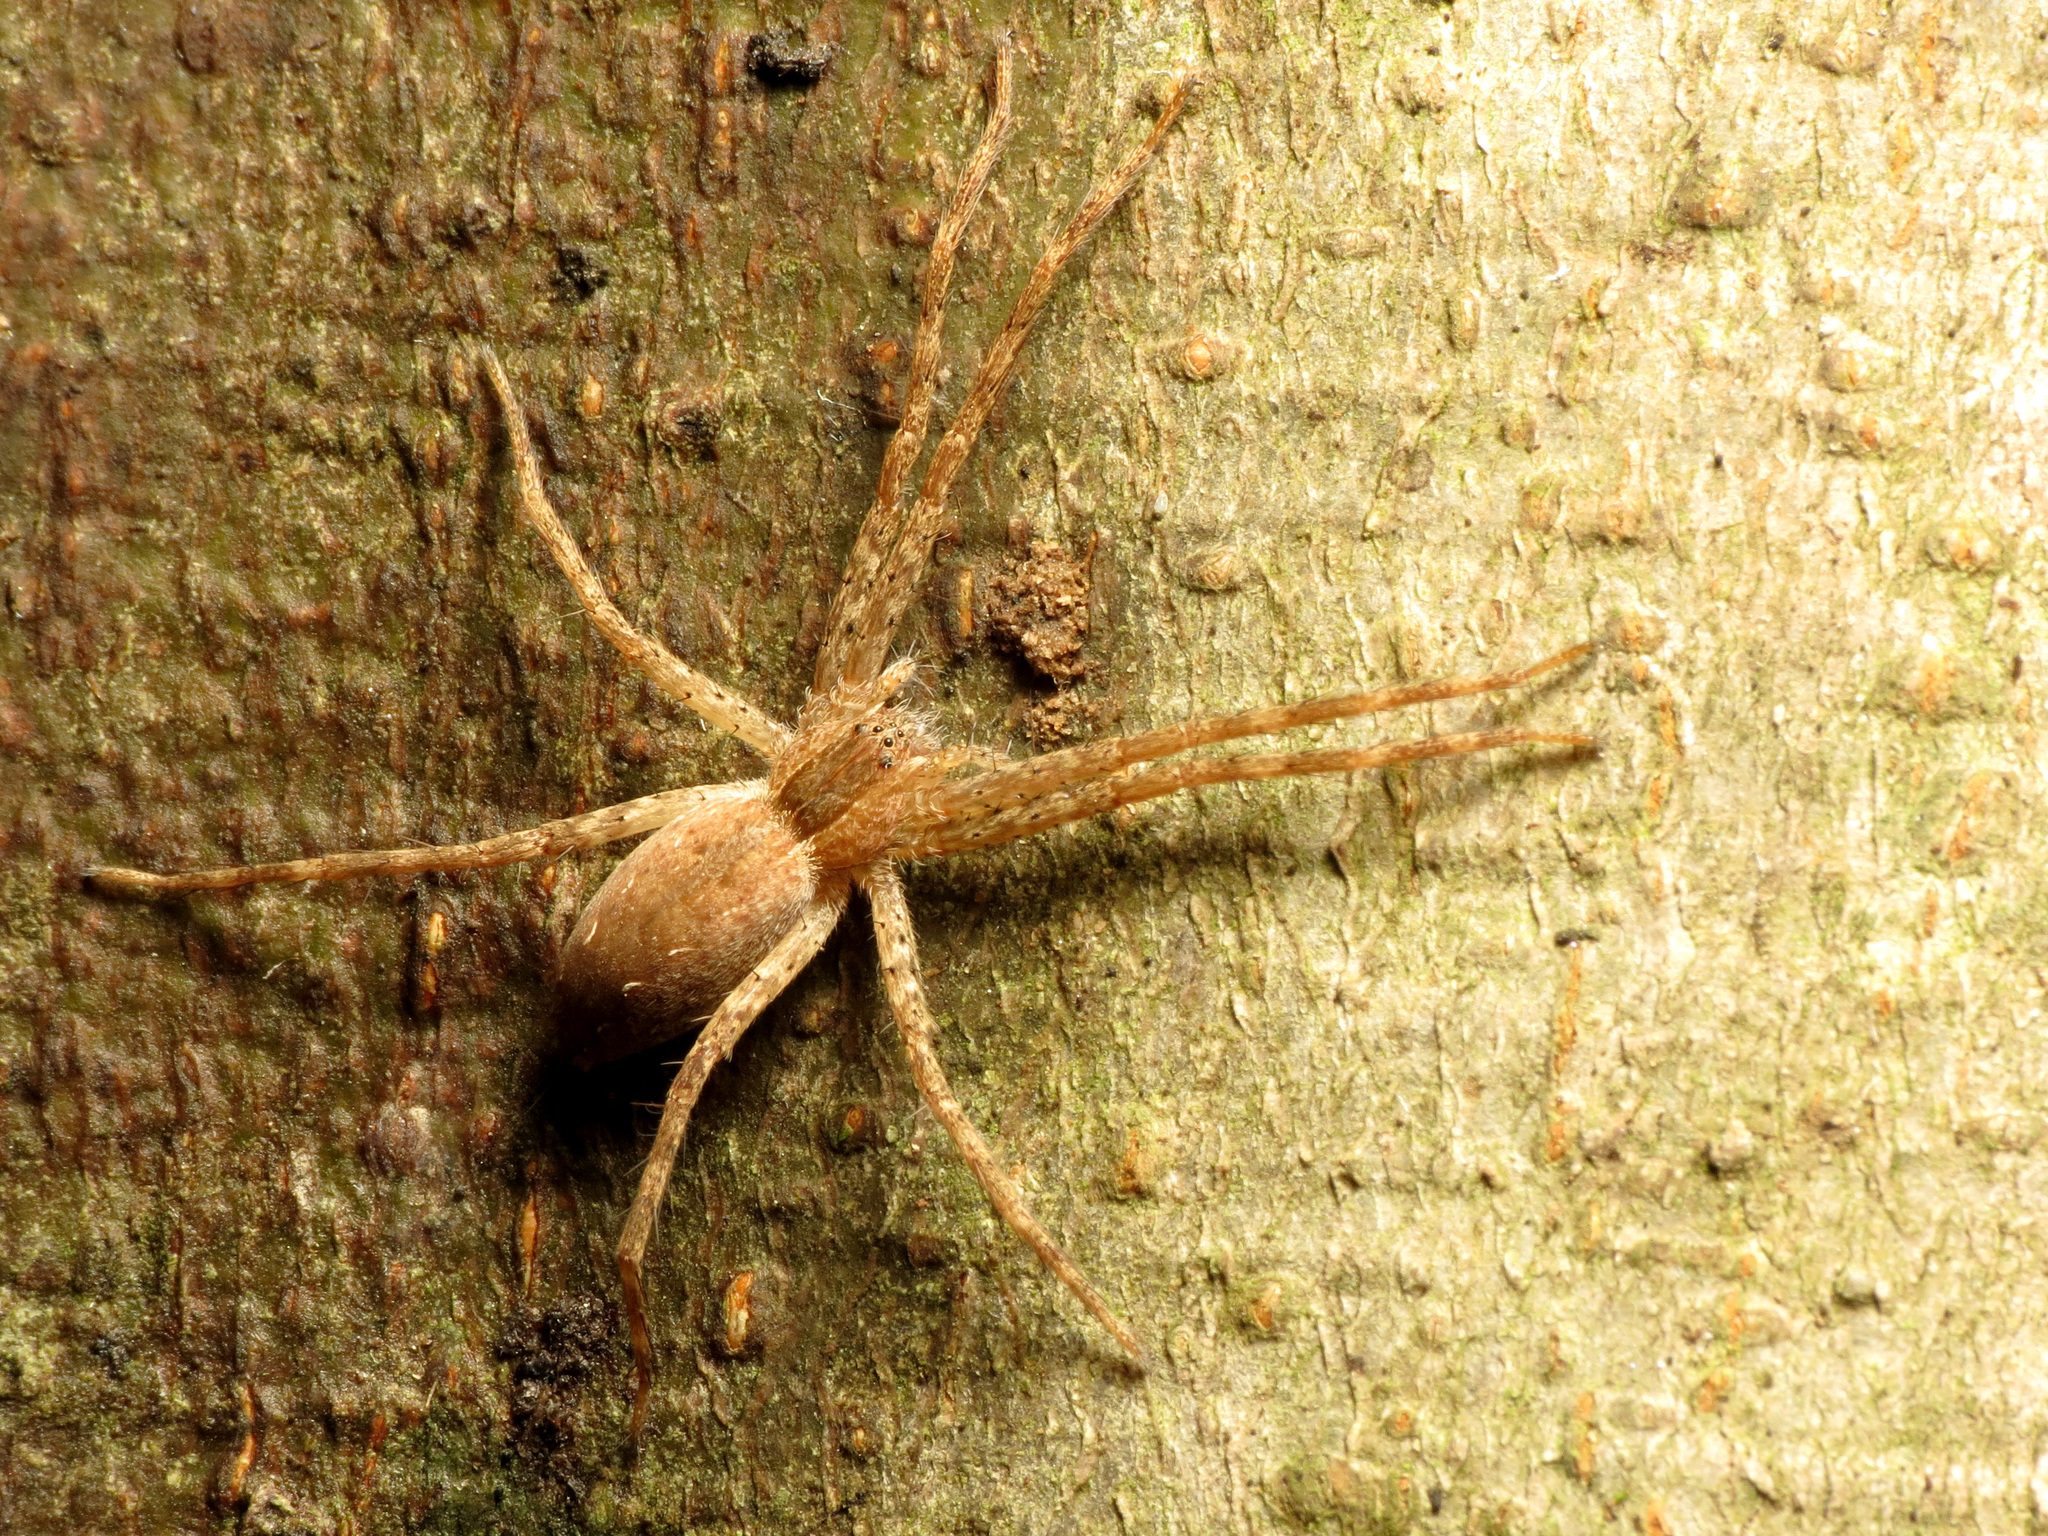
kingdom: Animalia
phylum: Arthropoda
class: Arachnida
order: Araneae
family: Pisauridae
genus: Pisaurina
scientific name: Pisaurina mira
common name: American nursery web spider
